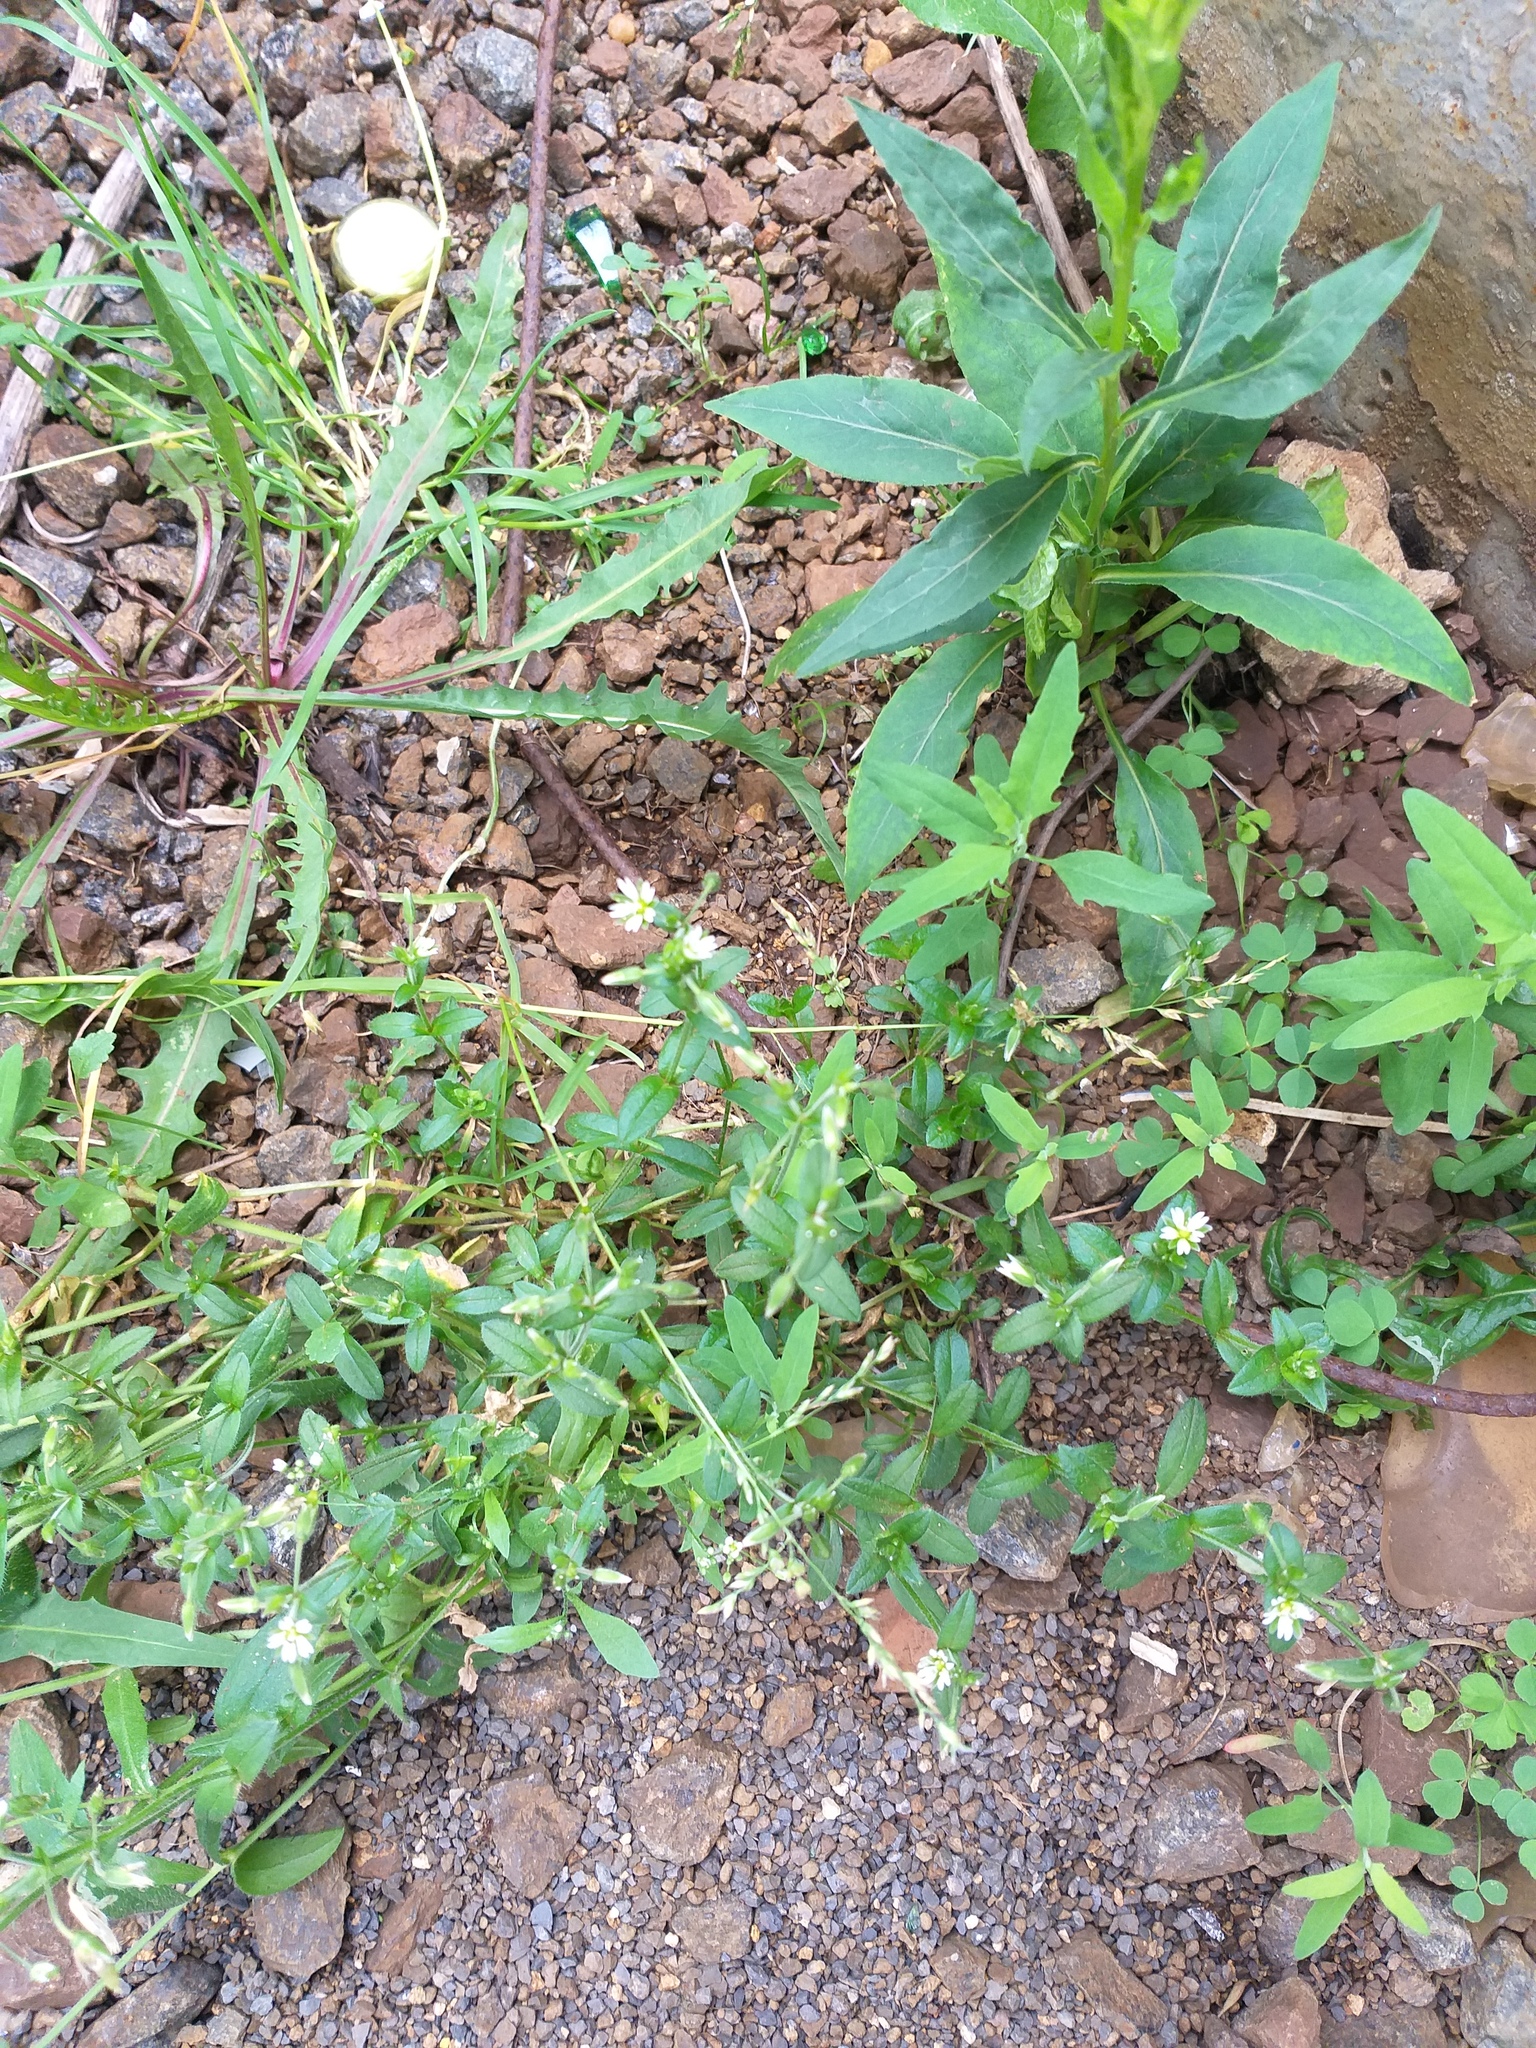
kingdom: Plantae
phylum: Tracheophyta
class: Magnoliopsida
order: Caryophyllales
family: Caryophyllaceae
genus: Cerastium
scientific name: Cerastium holosteoides
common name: Big chickweed
